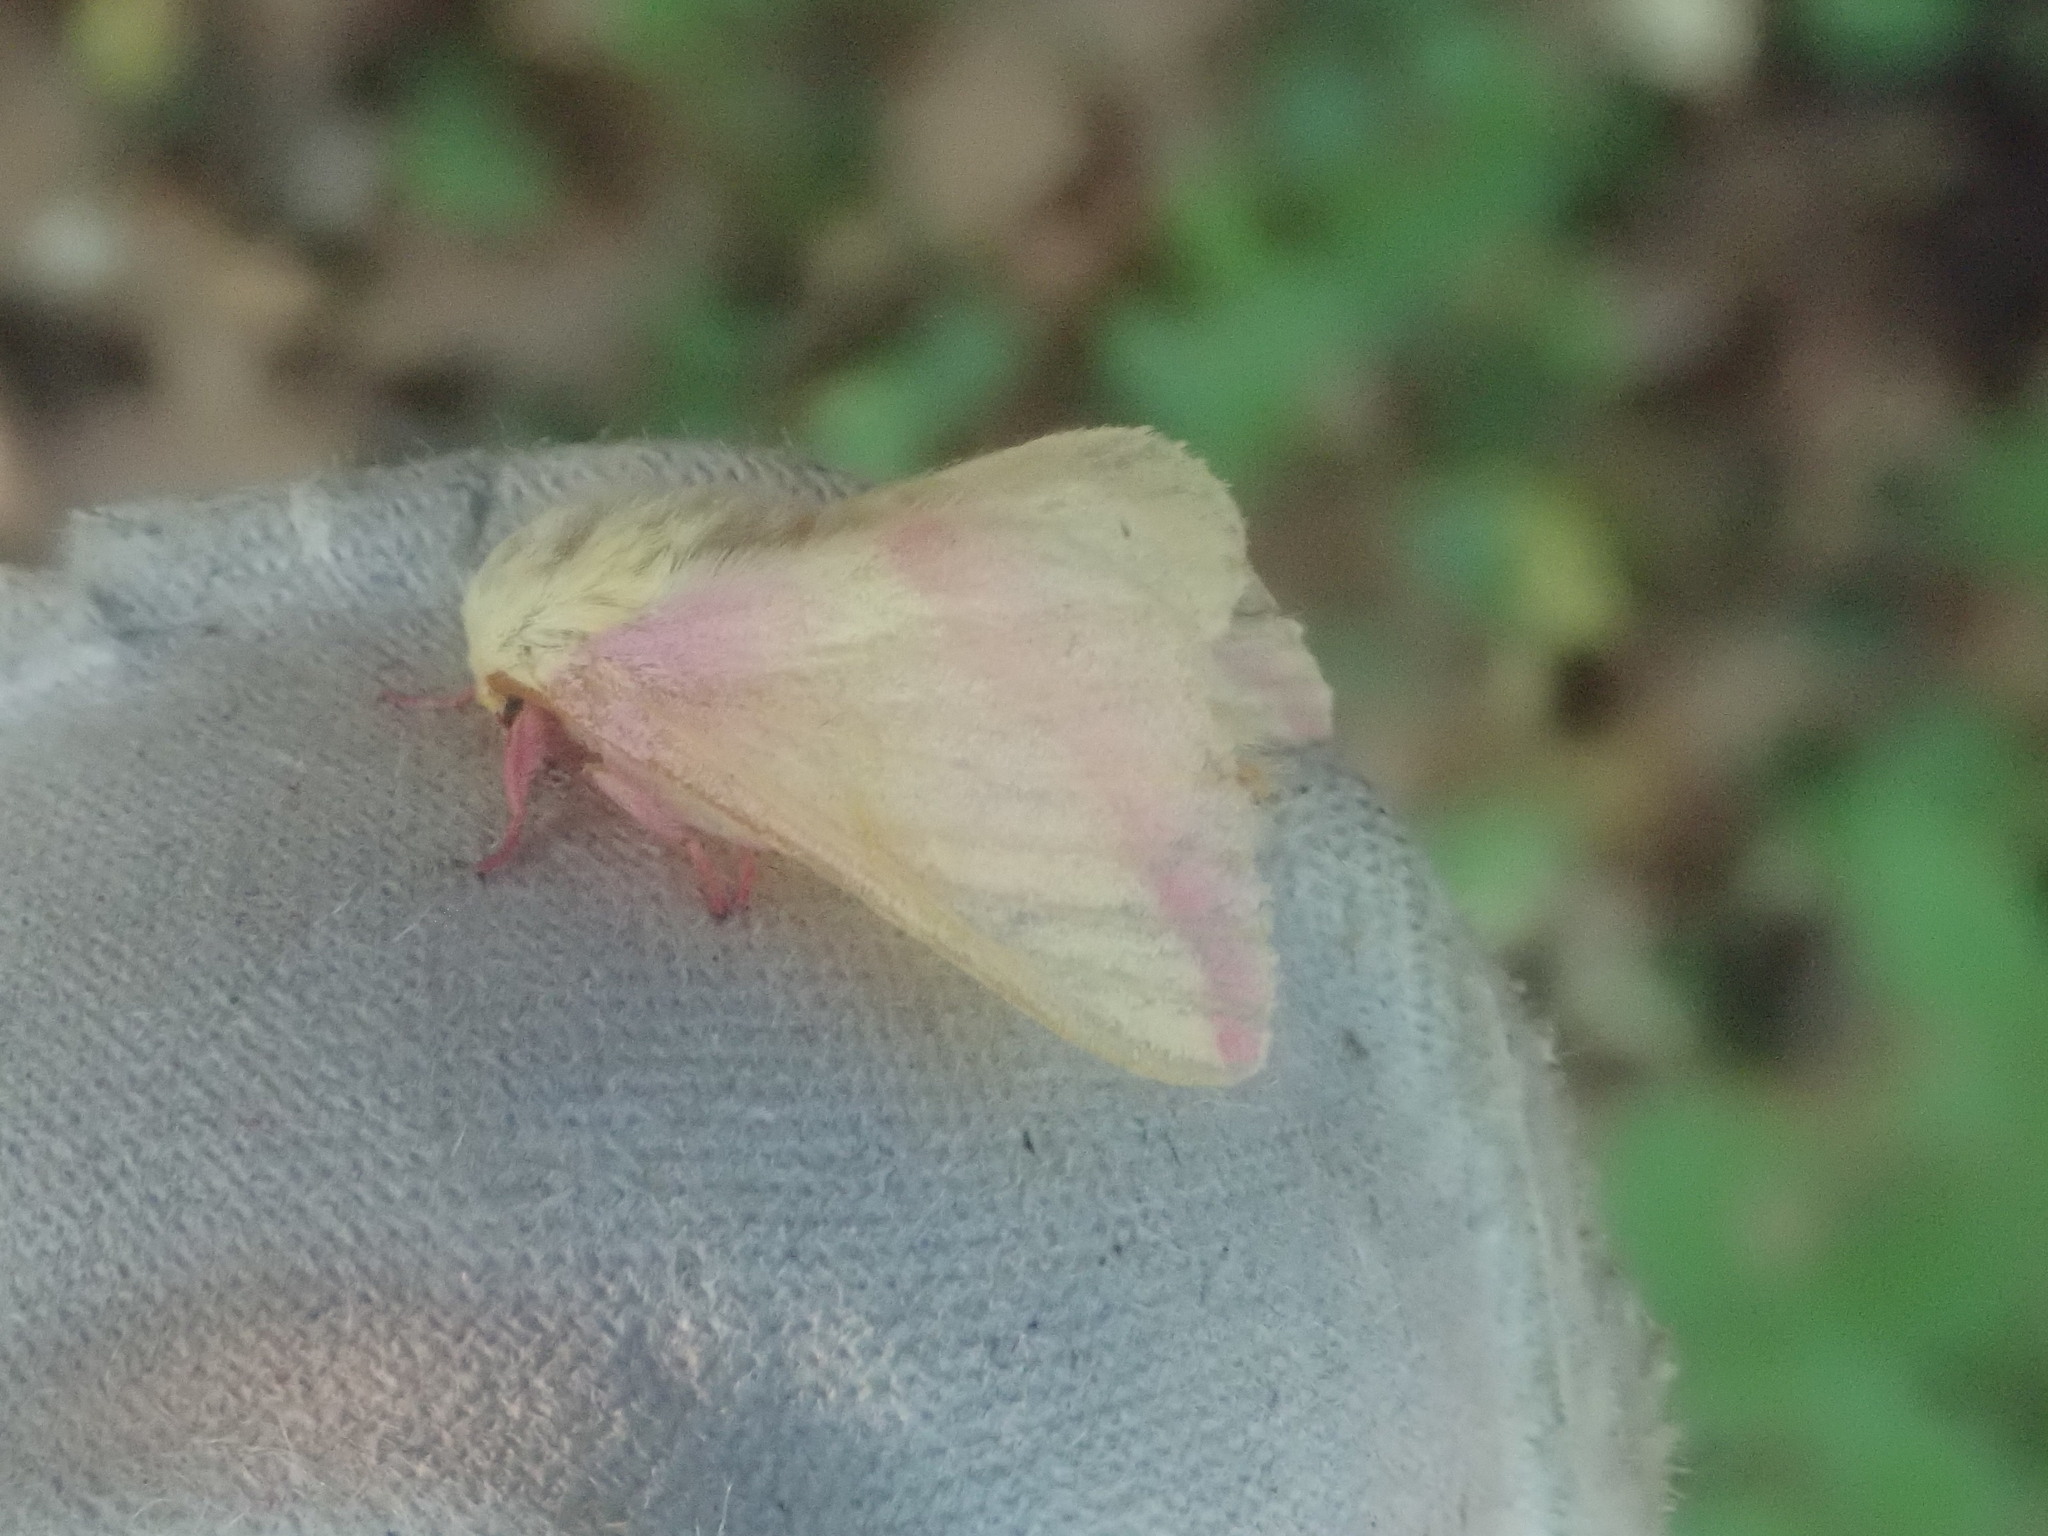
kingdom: Animalia
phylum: Arthropoda
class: Insecta
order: Lepidoptera
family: Saturniidae
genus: Dryocampa
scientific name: Dryocampa rubicunda
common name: Rosy maple moth
